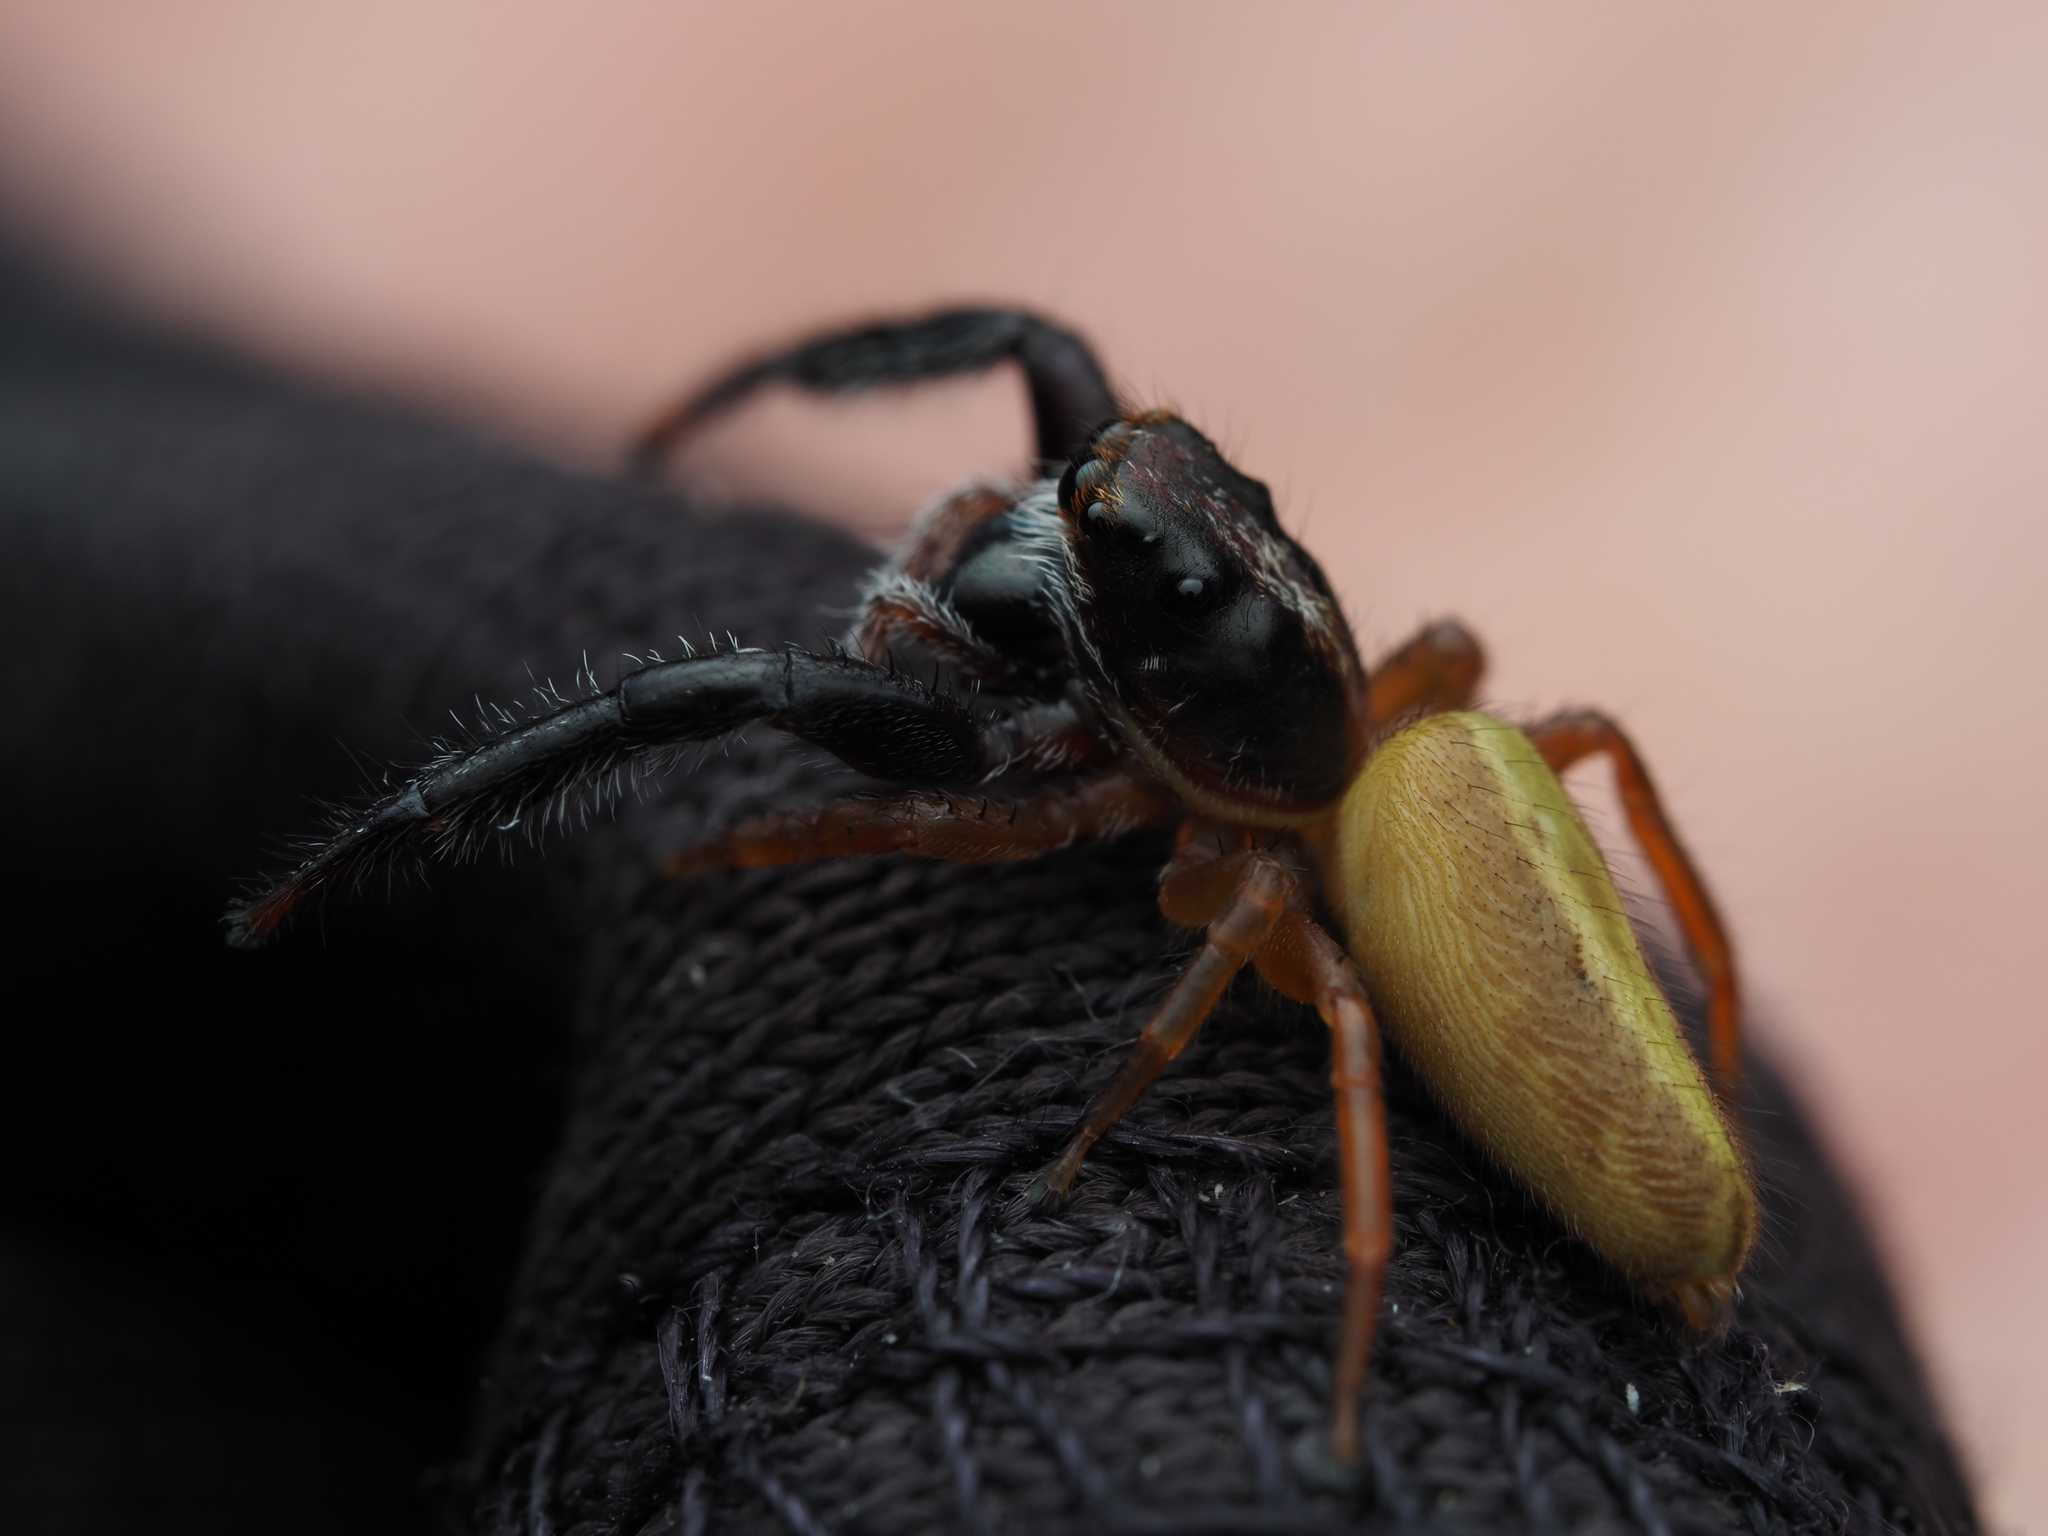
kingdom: Animalia
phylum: Arthropoda
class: Arachnida
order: Araneae
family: Salticidae
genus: Trite
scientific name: Trite planiceps
